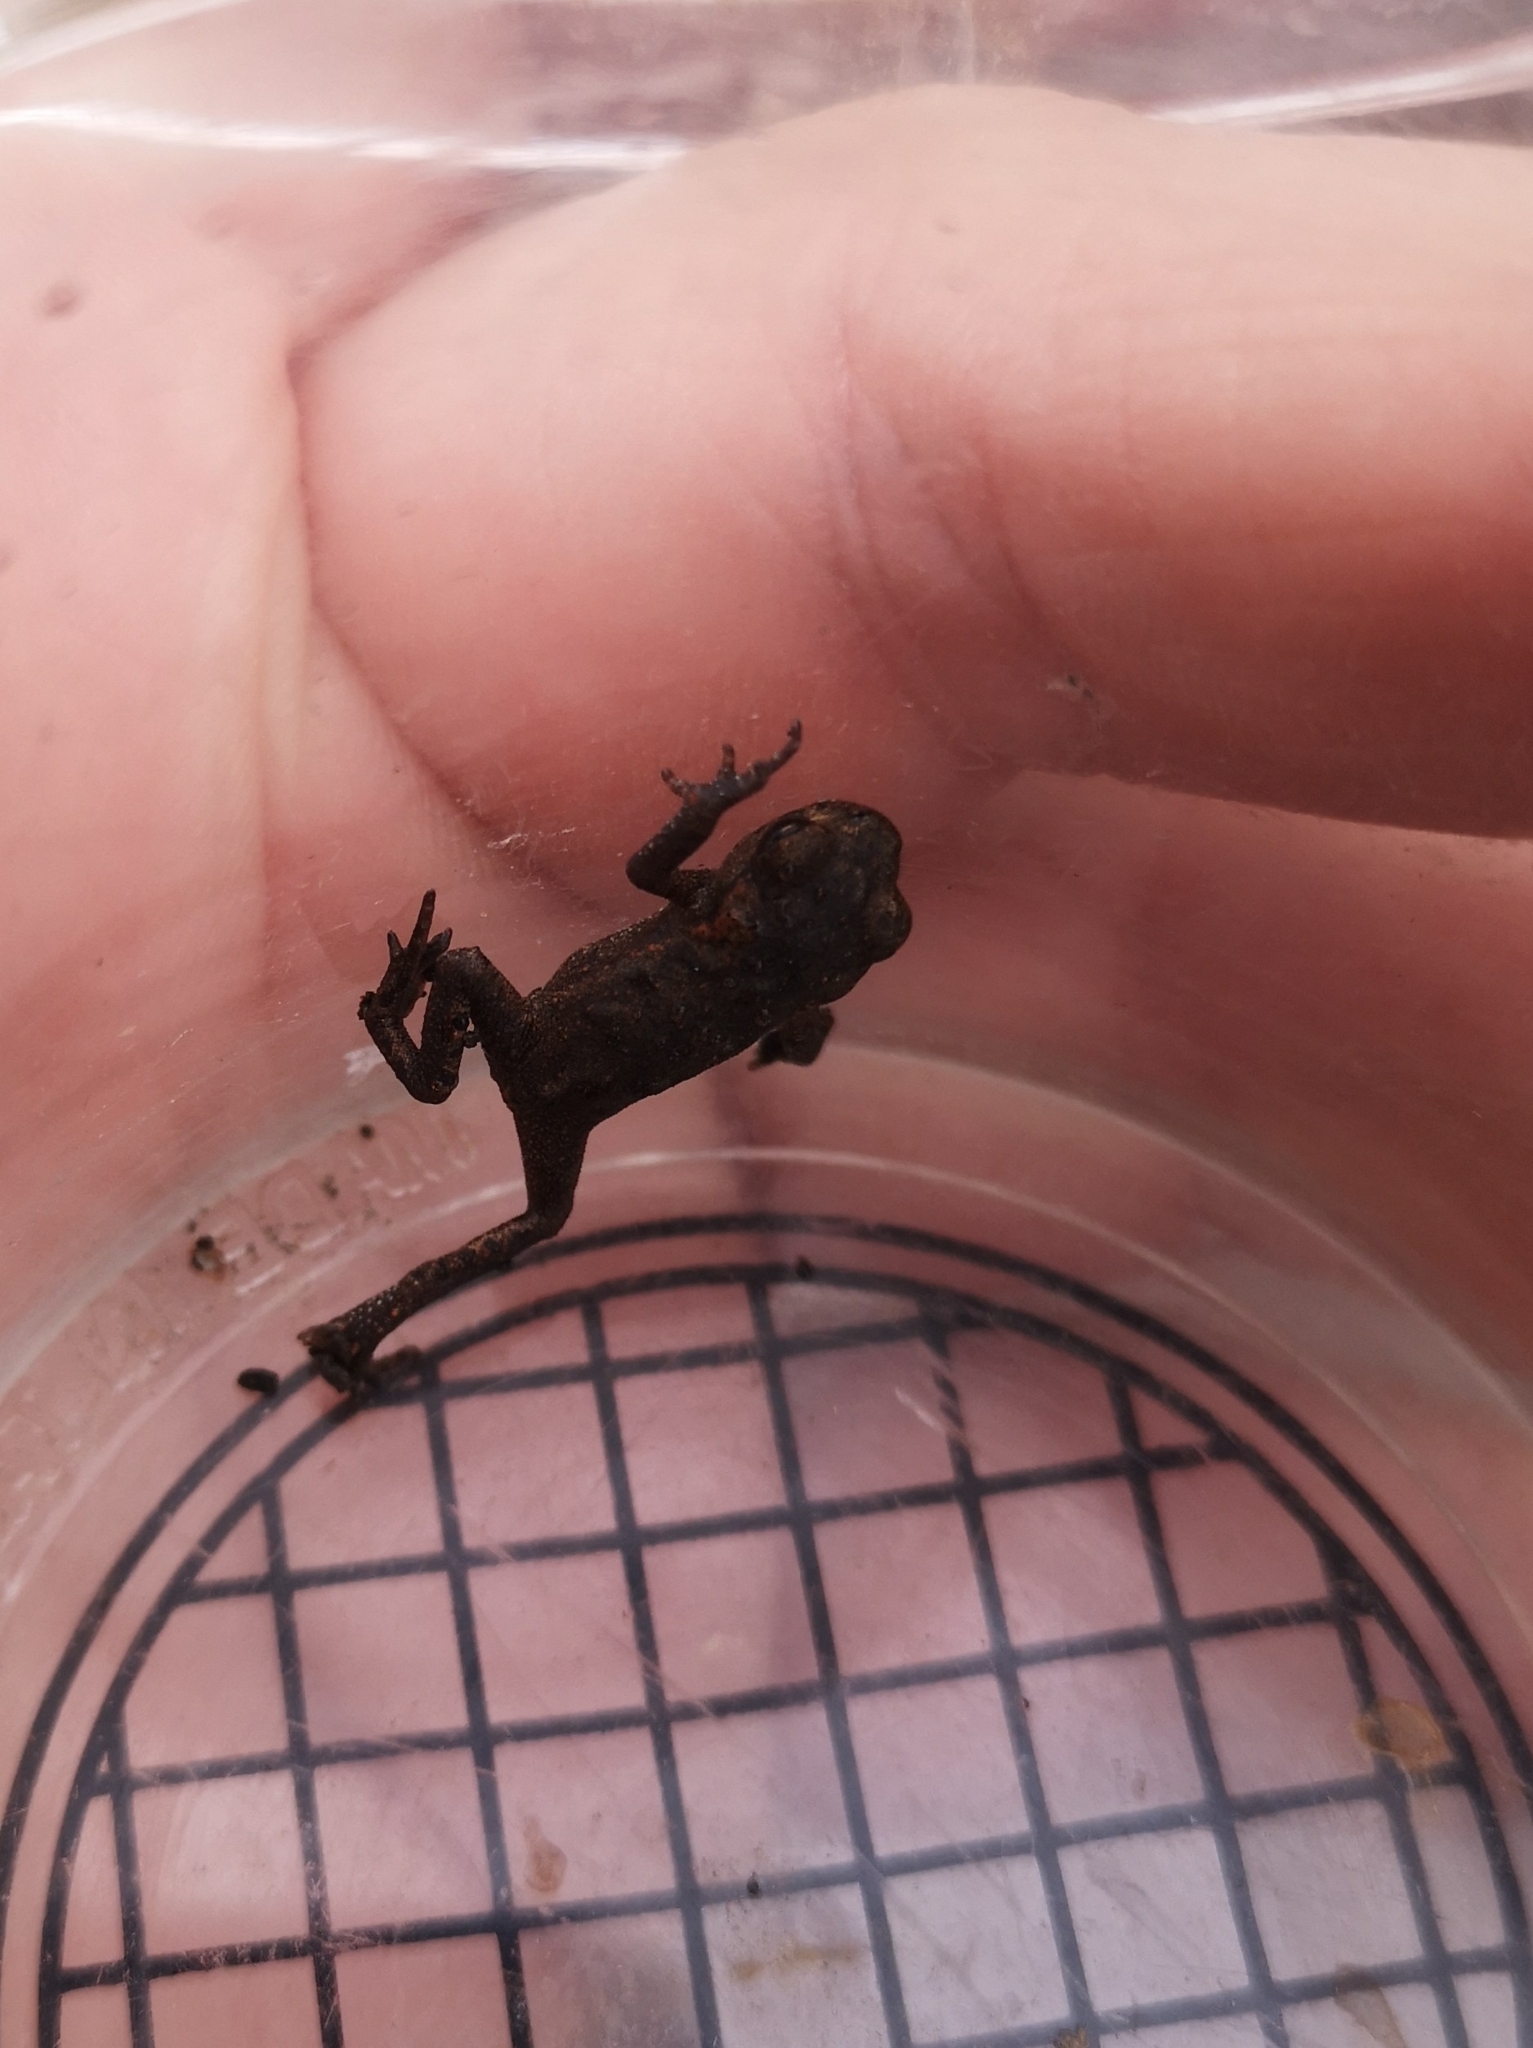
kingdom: Animalia
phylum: Chordata
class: Amphibia
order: Anura
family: Bufonidae
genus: Bufo
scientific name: Bufo bufo
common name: Common toad
